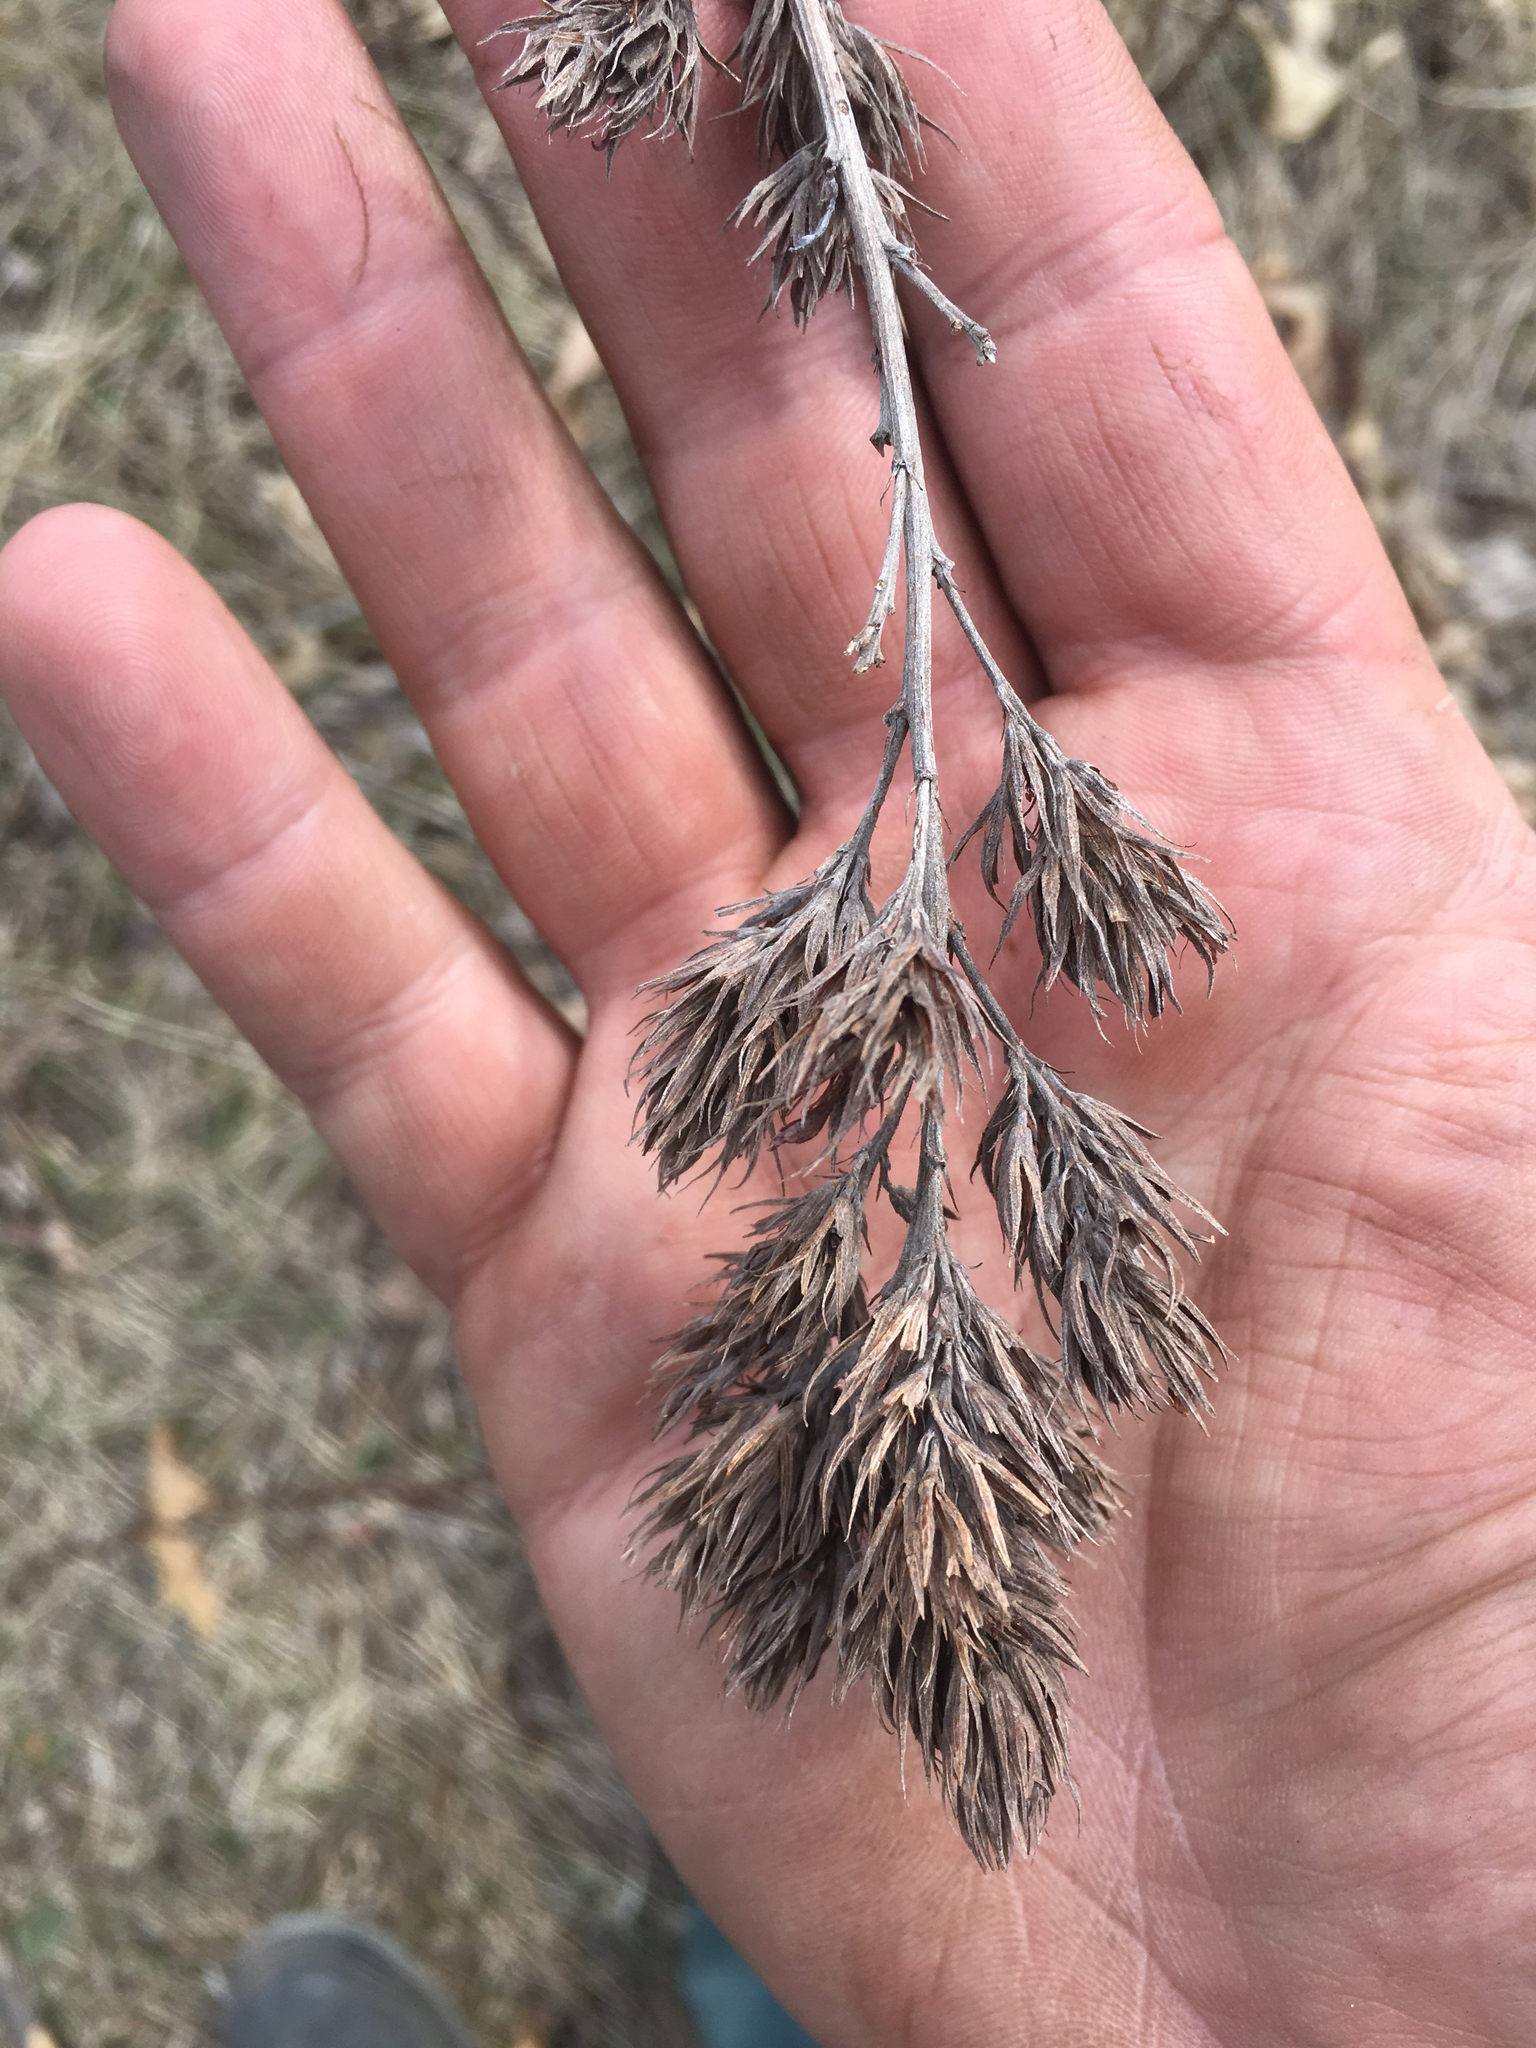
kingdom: Plantae
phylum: Tracheophyta
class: Magnoliopsida
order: Fabales
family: Fabaceae
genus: Lespedeza
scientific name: Lespedeza capitata
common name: Dusty clover
